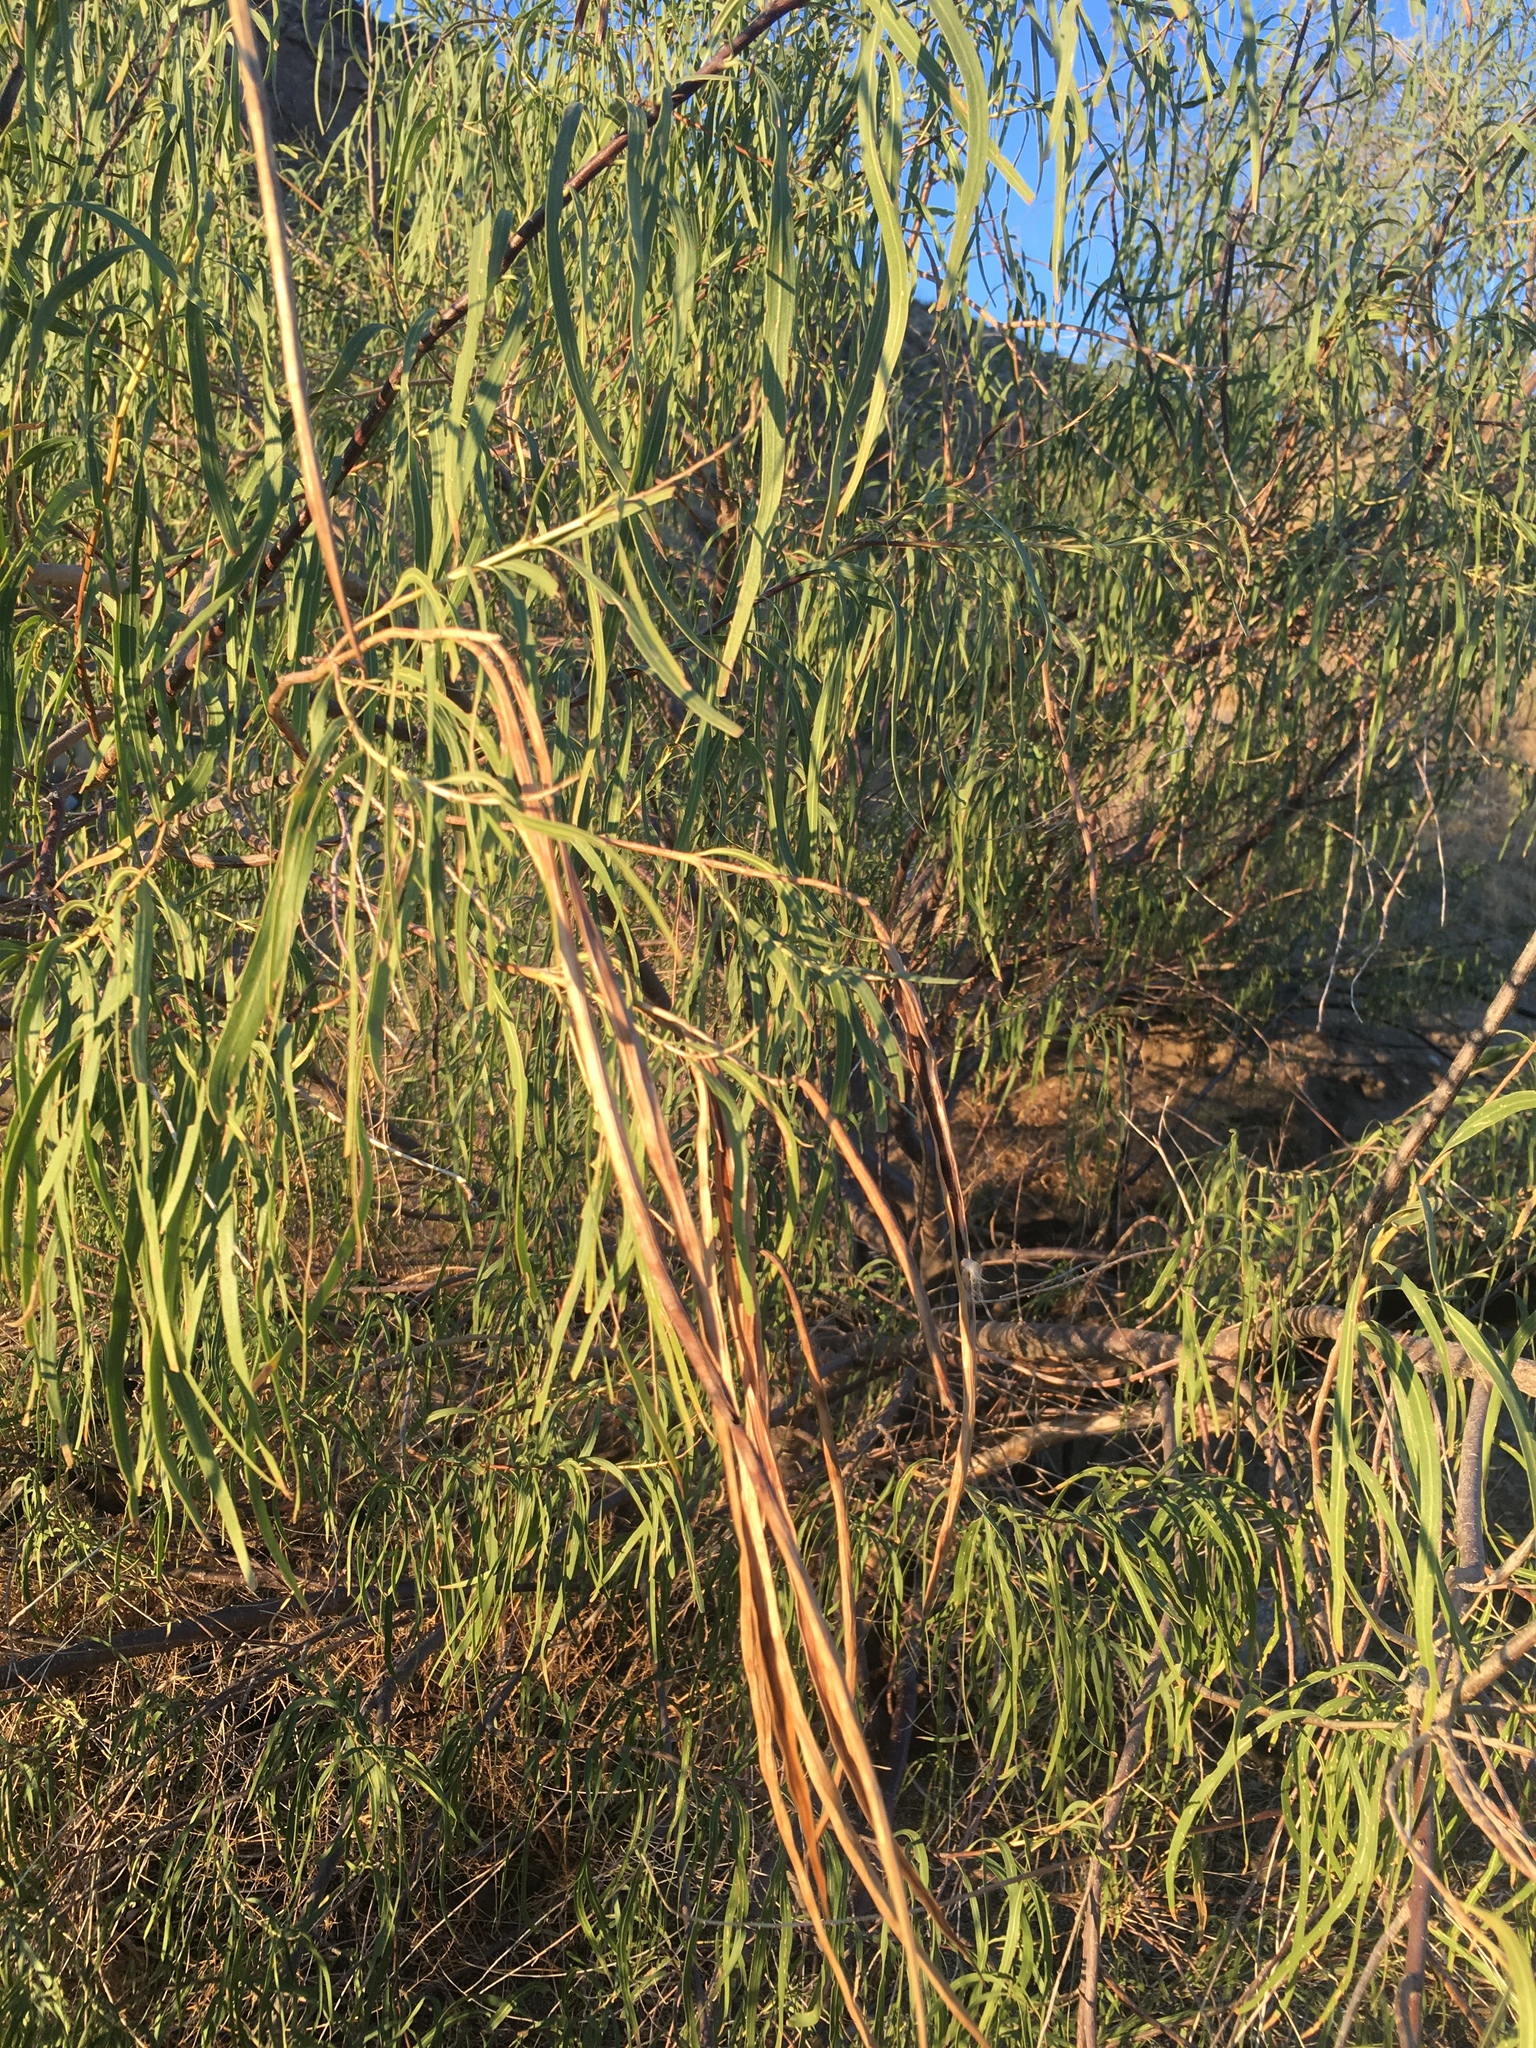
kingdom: Plantae
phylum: Tracheophyta
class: Magnoliopsida
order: Lamiales
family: Bignoniaceae
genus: Chilopsis
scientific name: Chilopsis linearis
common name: Desert-willow
